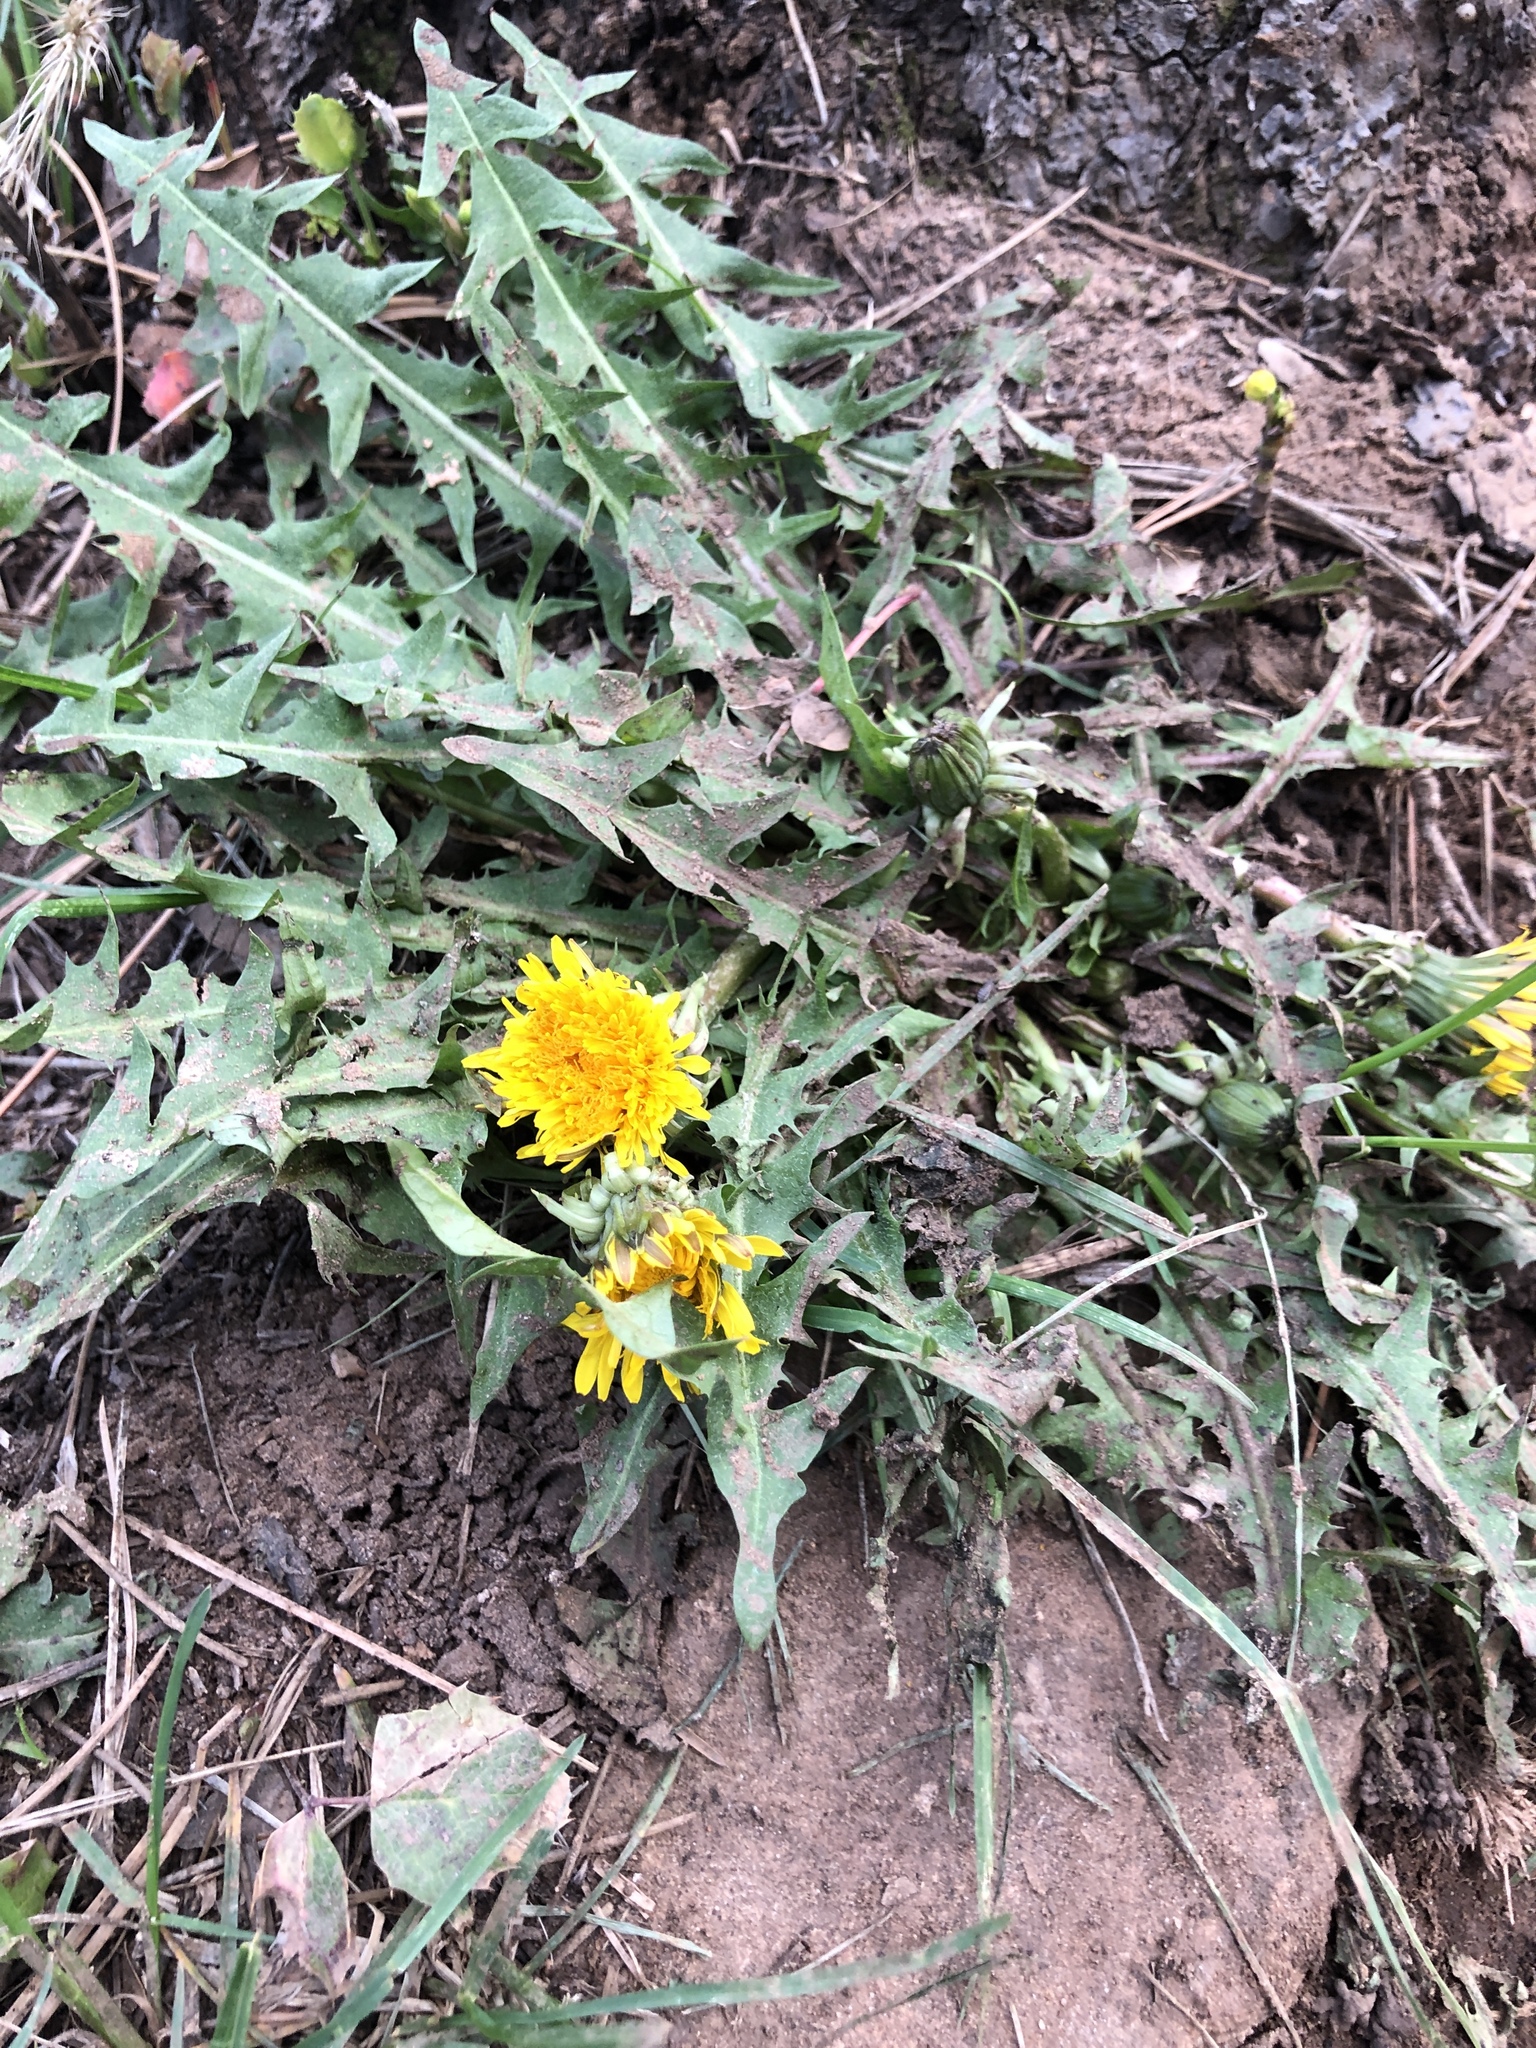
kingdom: Plantae
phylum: Tracheophyta
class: Magnoliopsida
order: Asterales
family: Asteraceae
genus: Taraxacum
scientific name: Taraxacum officinale
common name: Common dandelion
